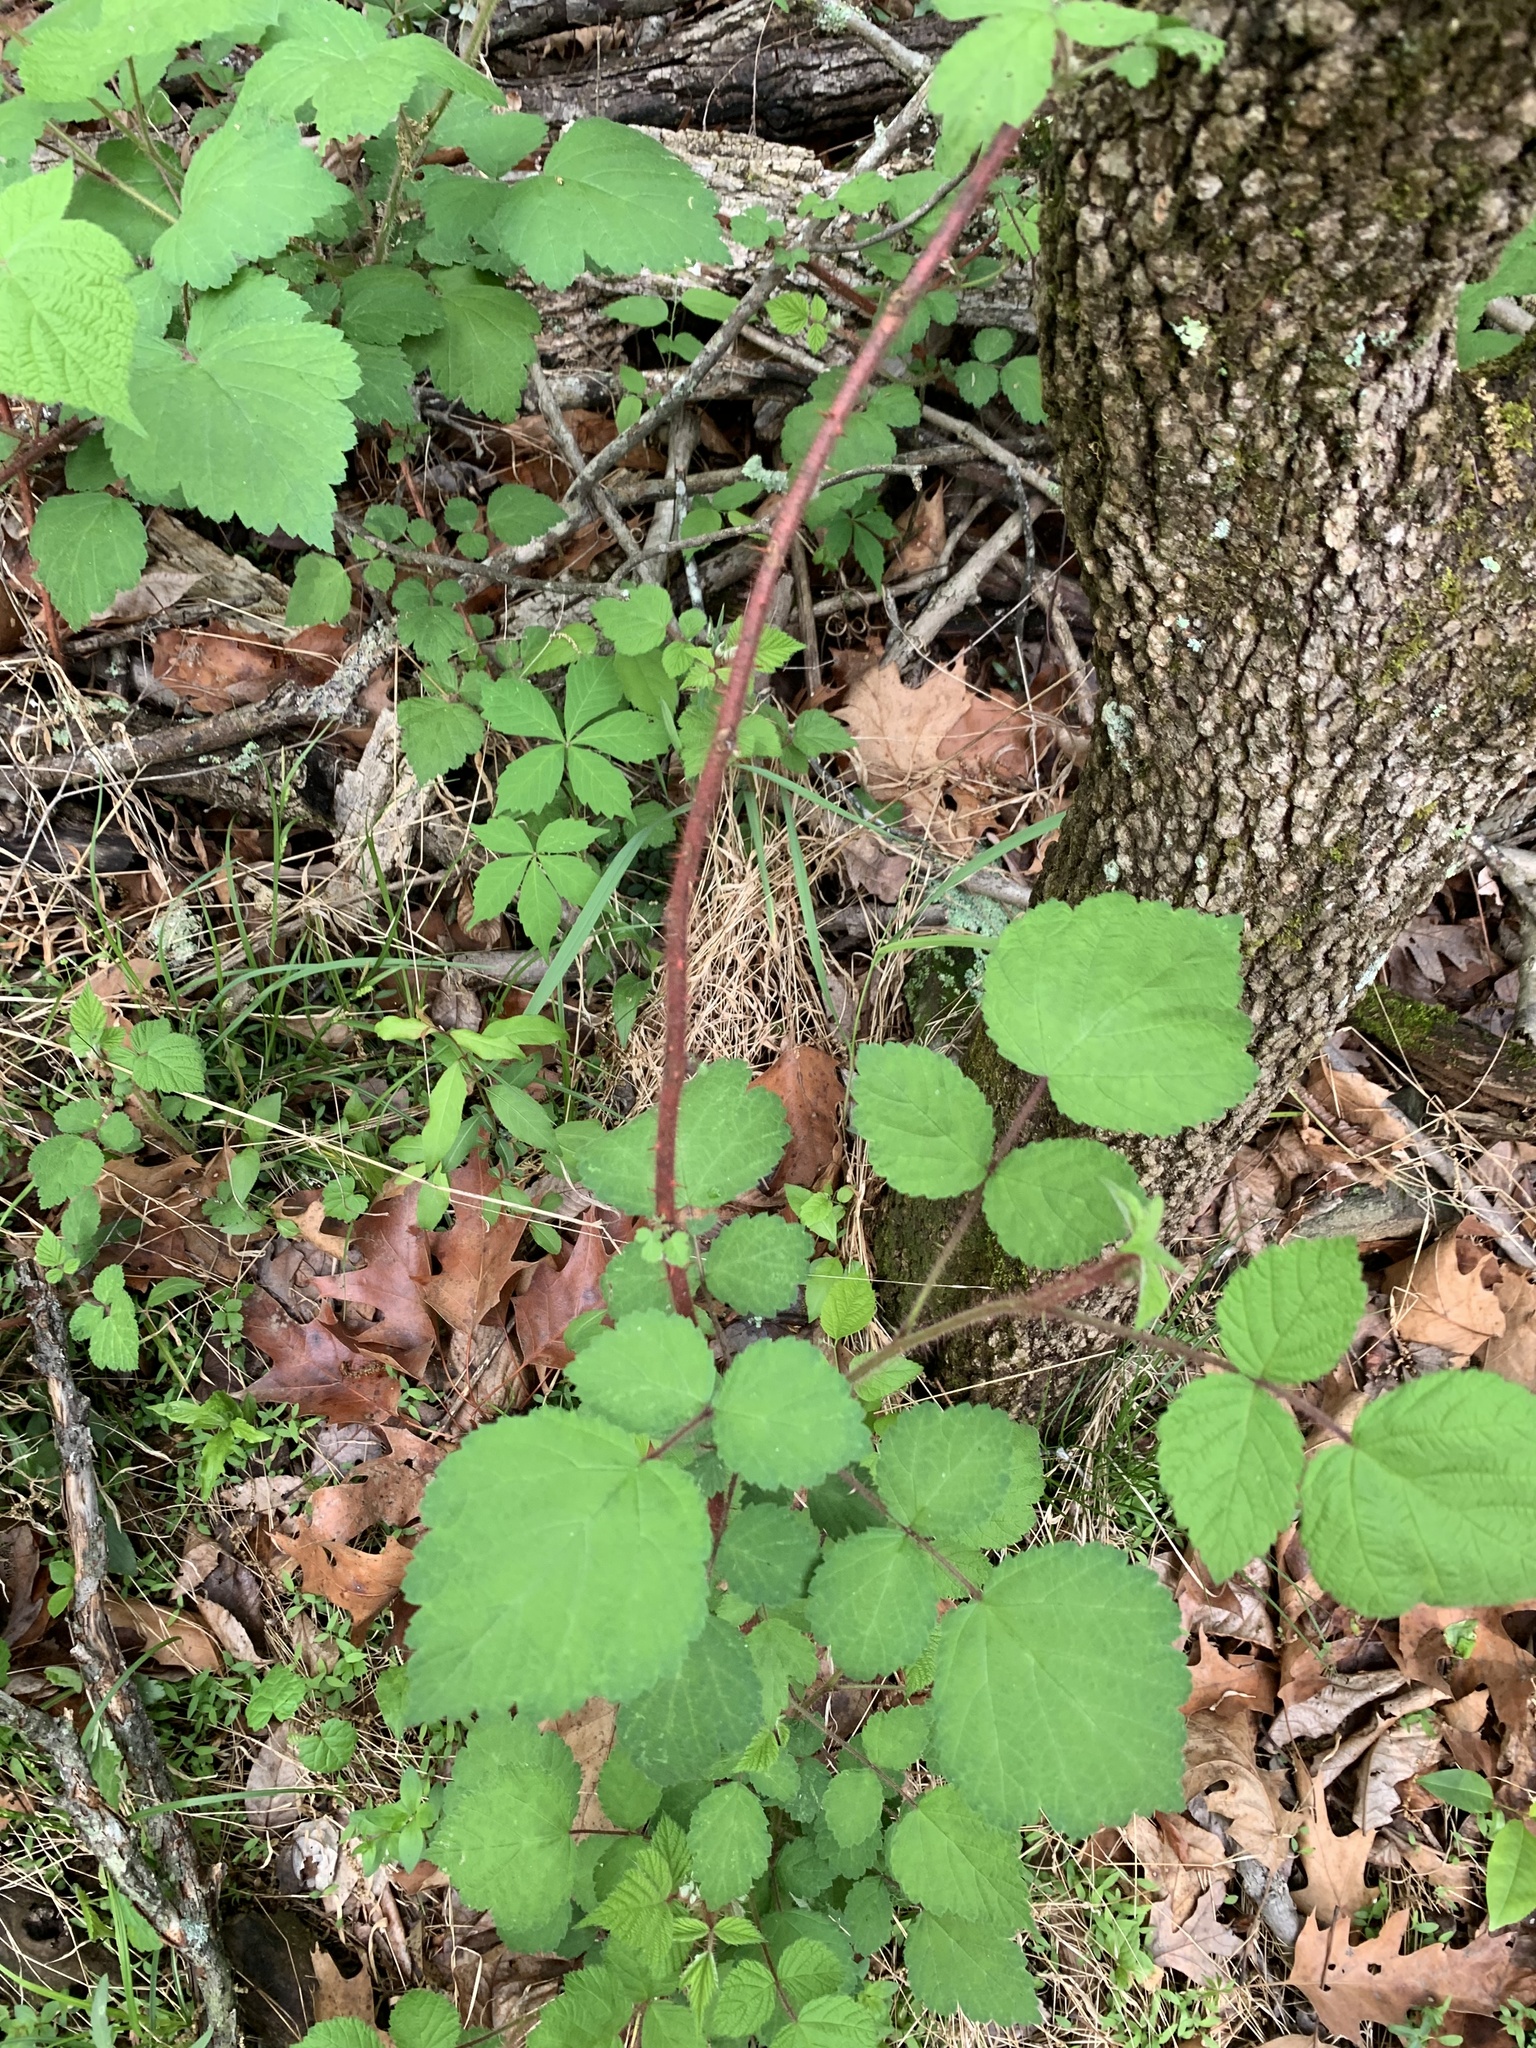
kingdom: Plantae
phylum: Tracheophyta
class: Magnoliopsida
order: Rosales
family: Rosaceae
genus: Rubus
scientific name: Rubus phoenicolasius
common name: Japanese wineberry
